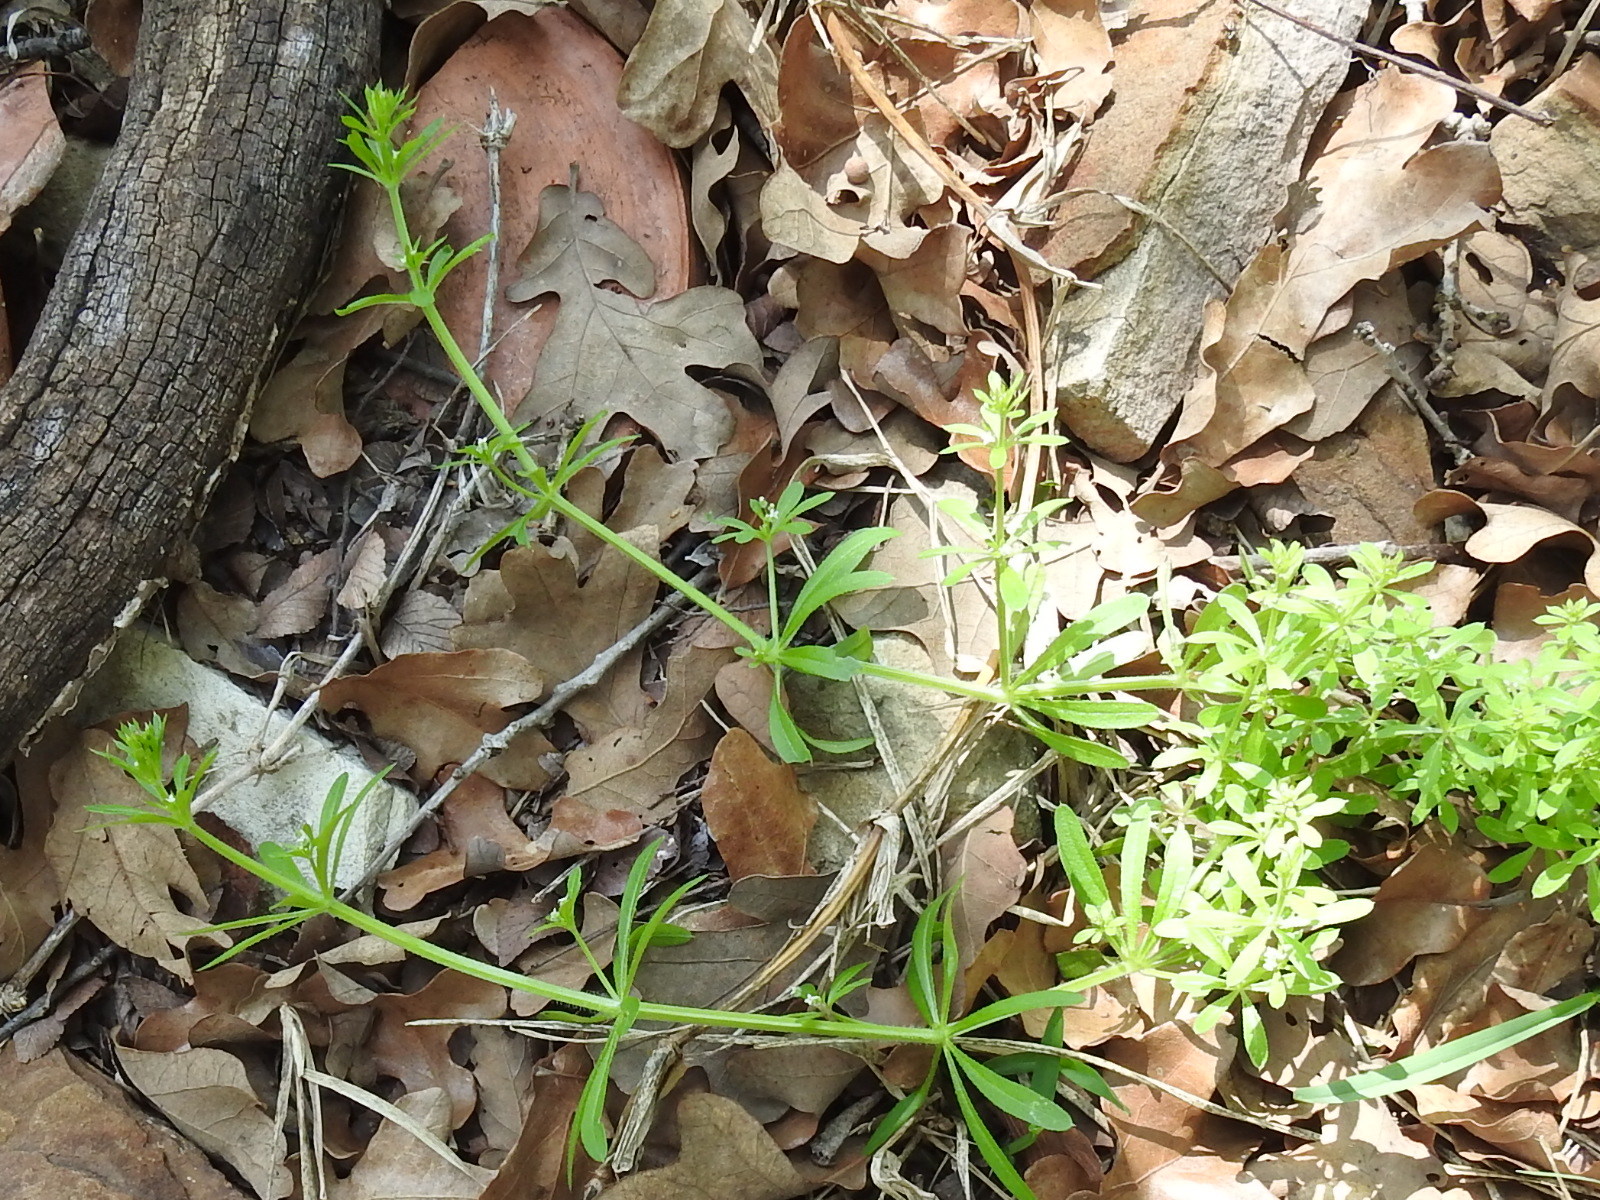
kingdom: Plantae
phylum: Tracheophyta
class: Magnoliopsida
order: Gentianales
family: Rubiaceae
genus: Galium
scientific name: Galium aparine
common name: Cleavers
